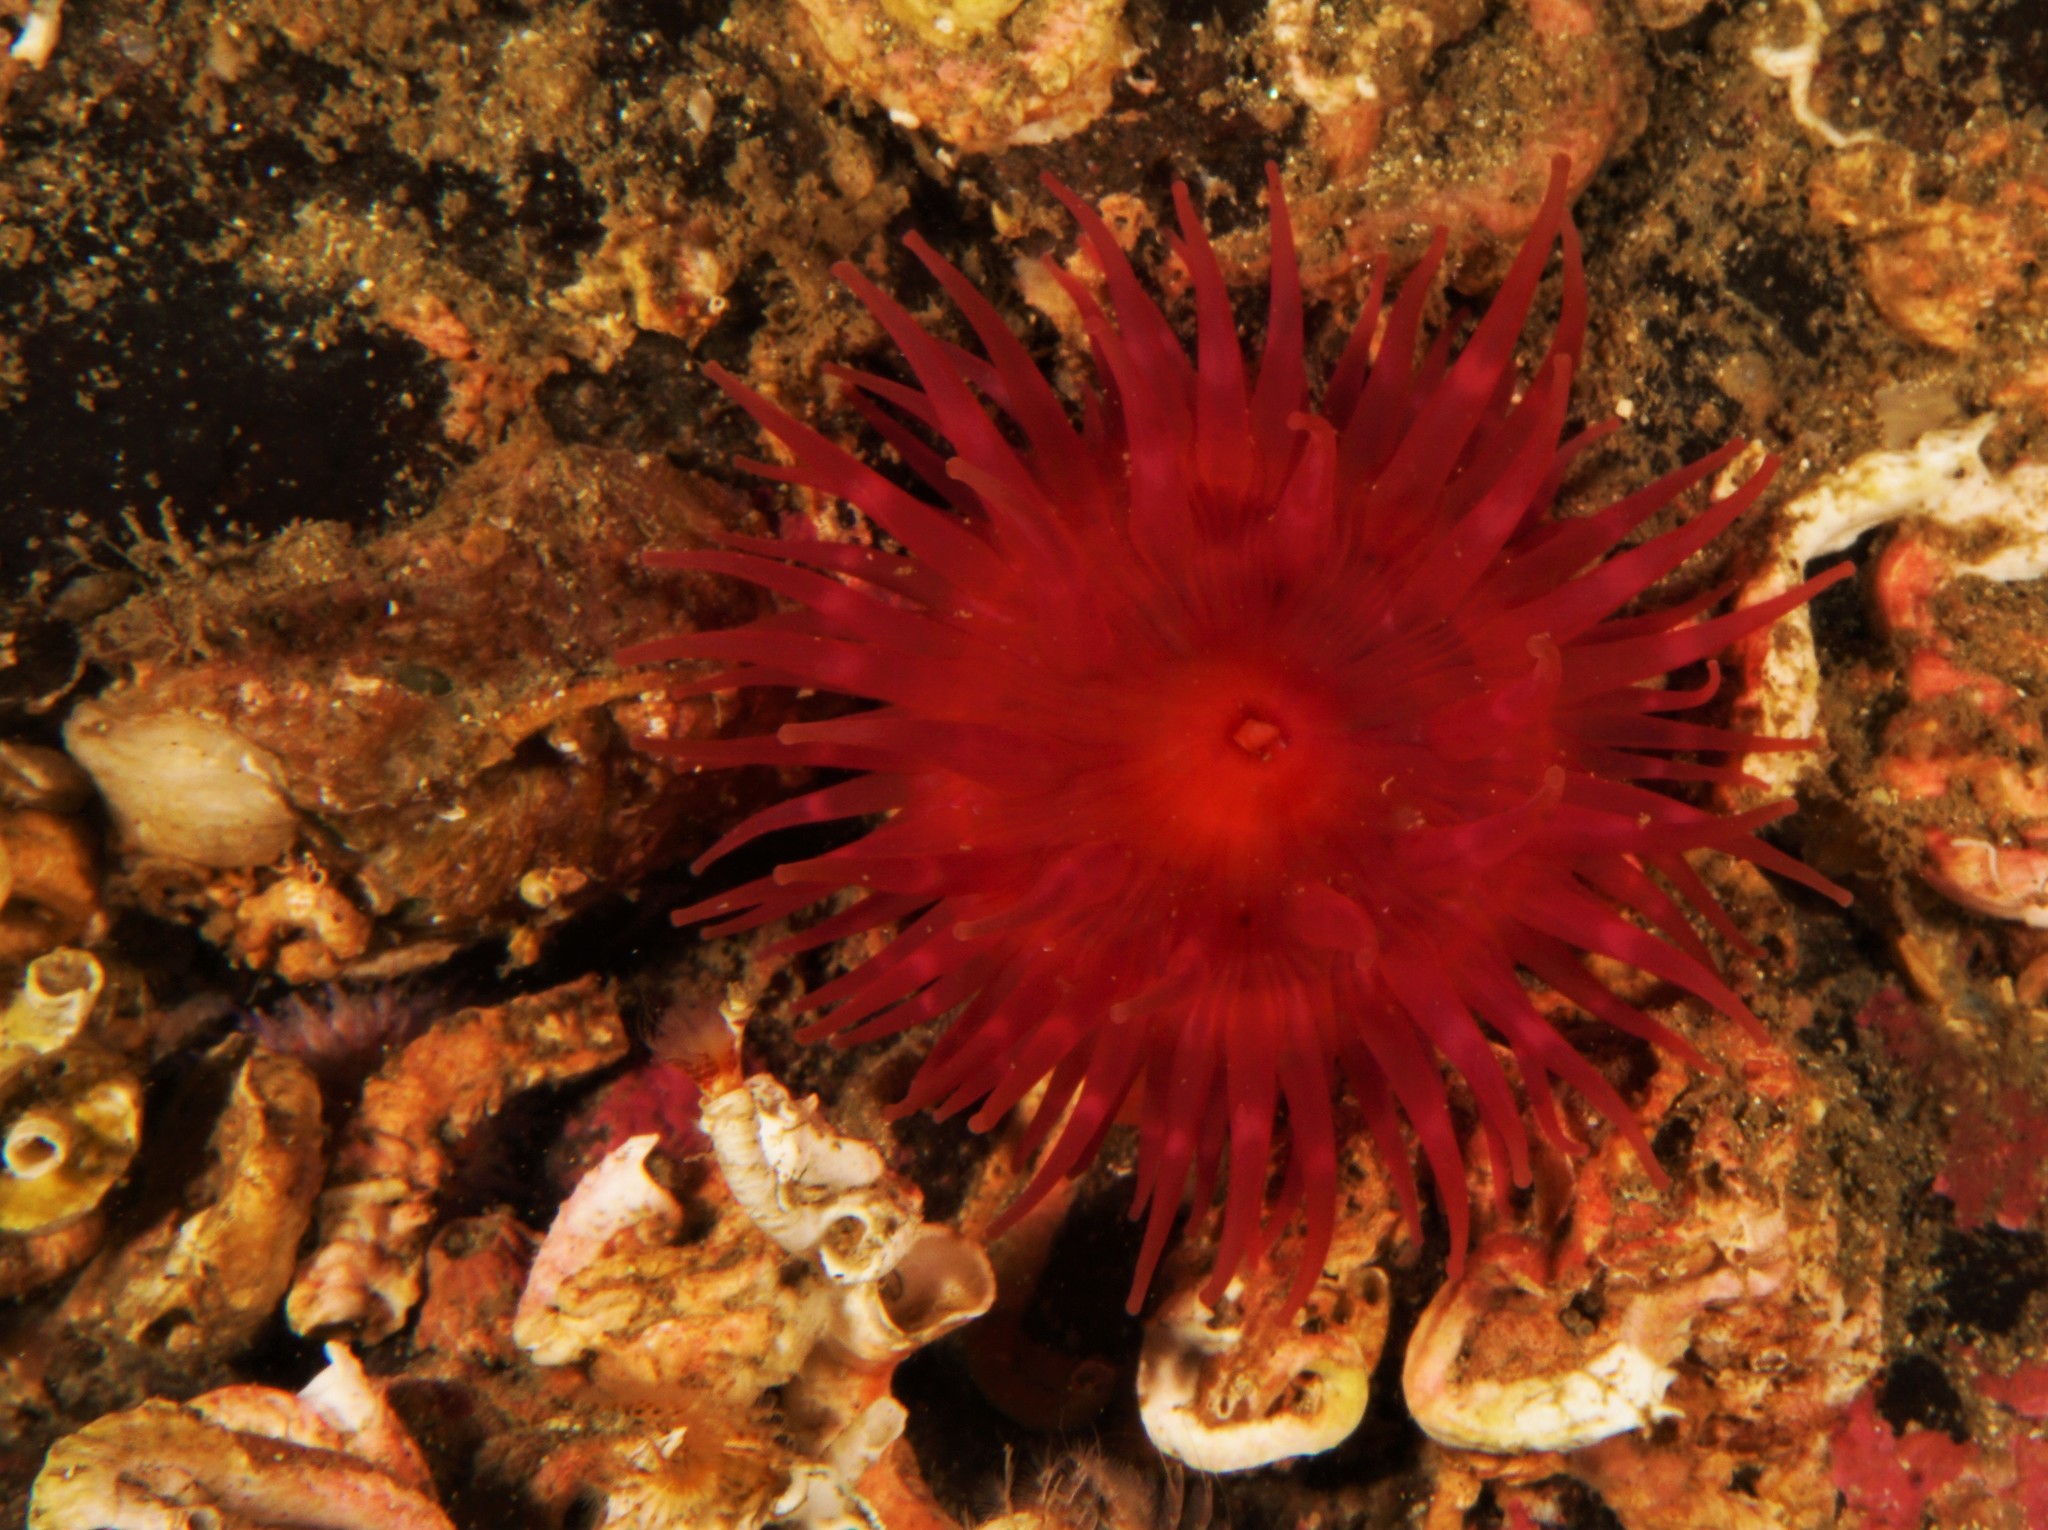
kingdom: Animalia
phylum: Cnidaria
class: Anthozoa
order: Actiniaria
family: Actiniidae
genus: Actinia
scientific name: Actinia equina
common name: Beadlet anemone
